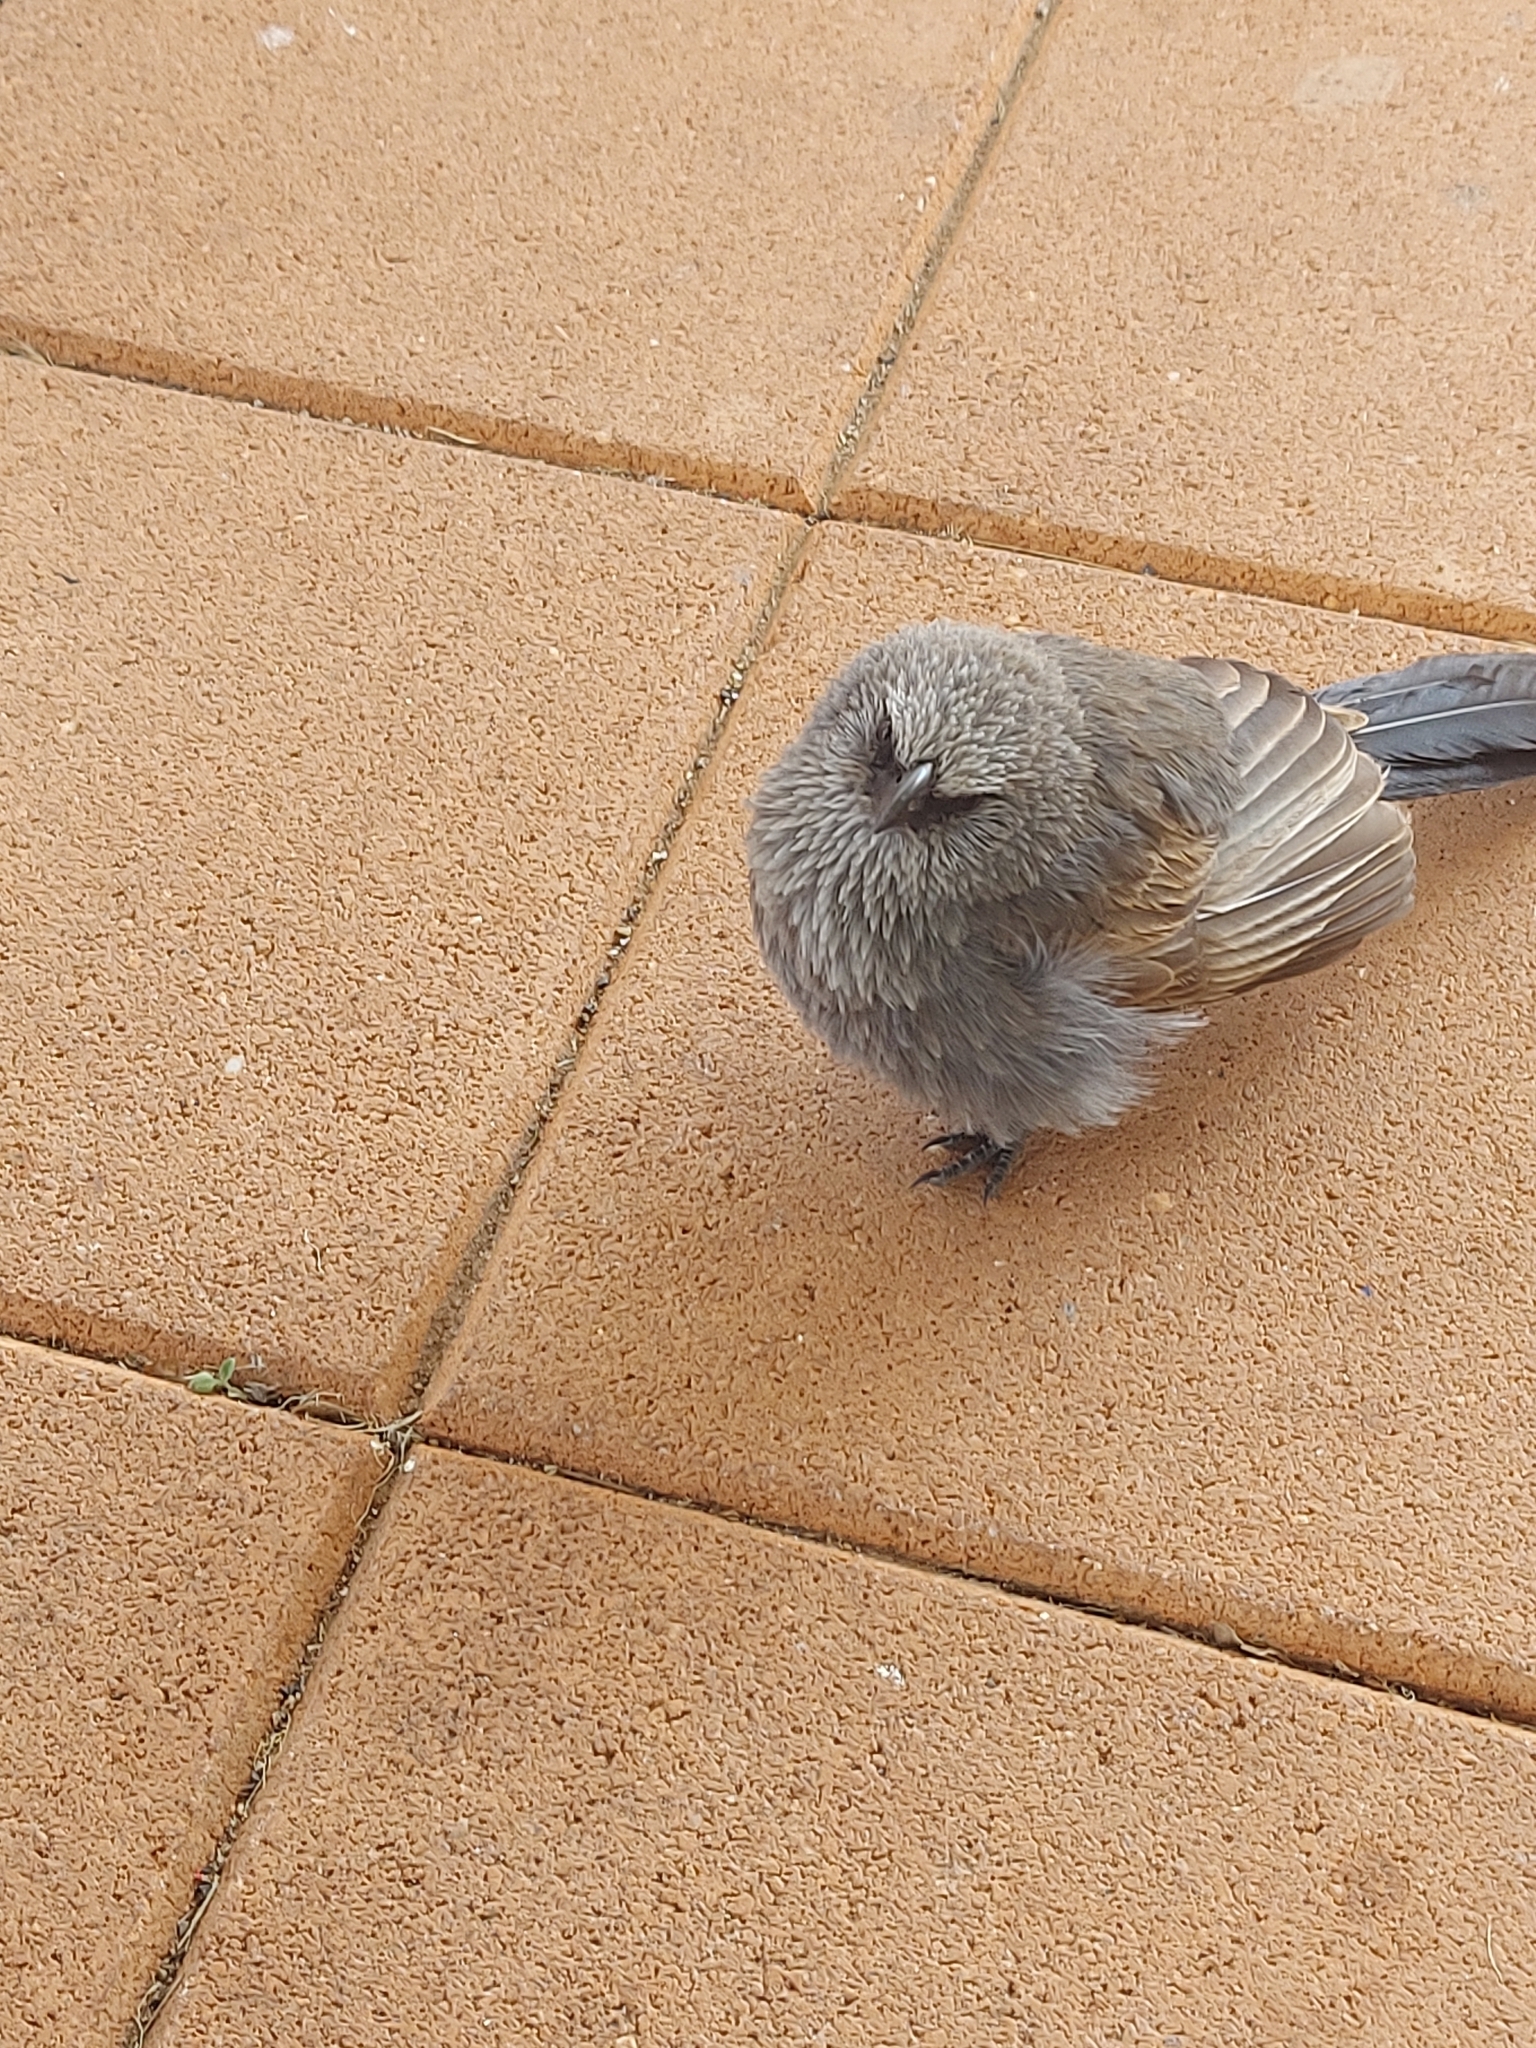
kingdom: Animalia
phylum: Chordata
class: Aves
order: Passeriformes
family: Corcoracidae
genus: Struthidea
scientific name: Struthidea cinerea
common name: Apostlebird
